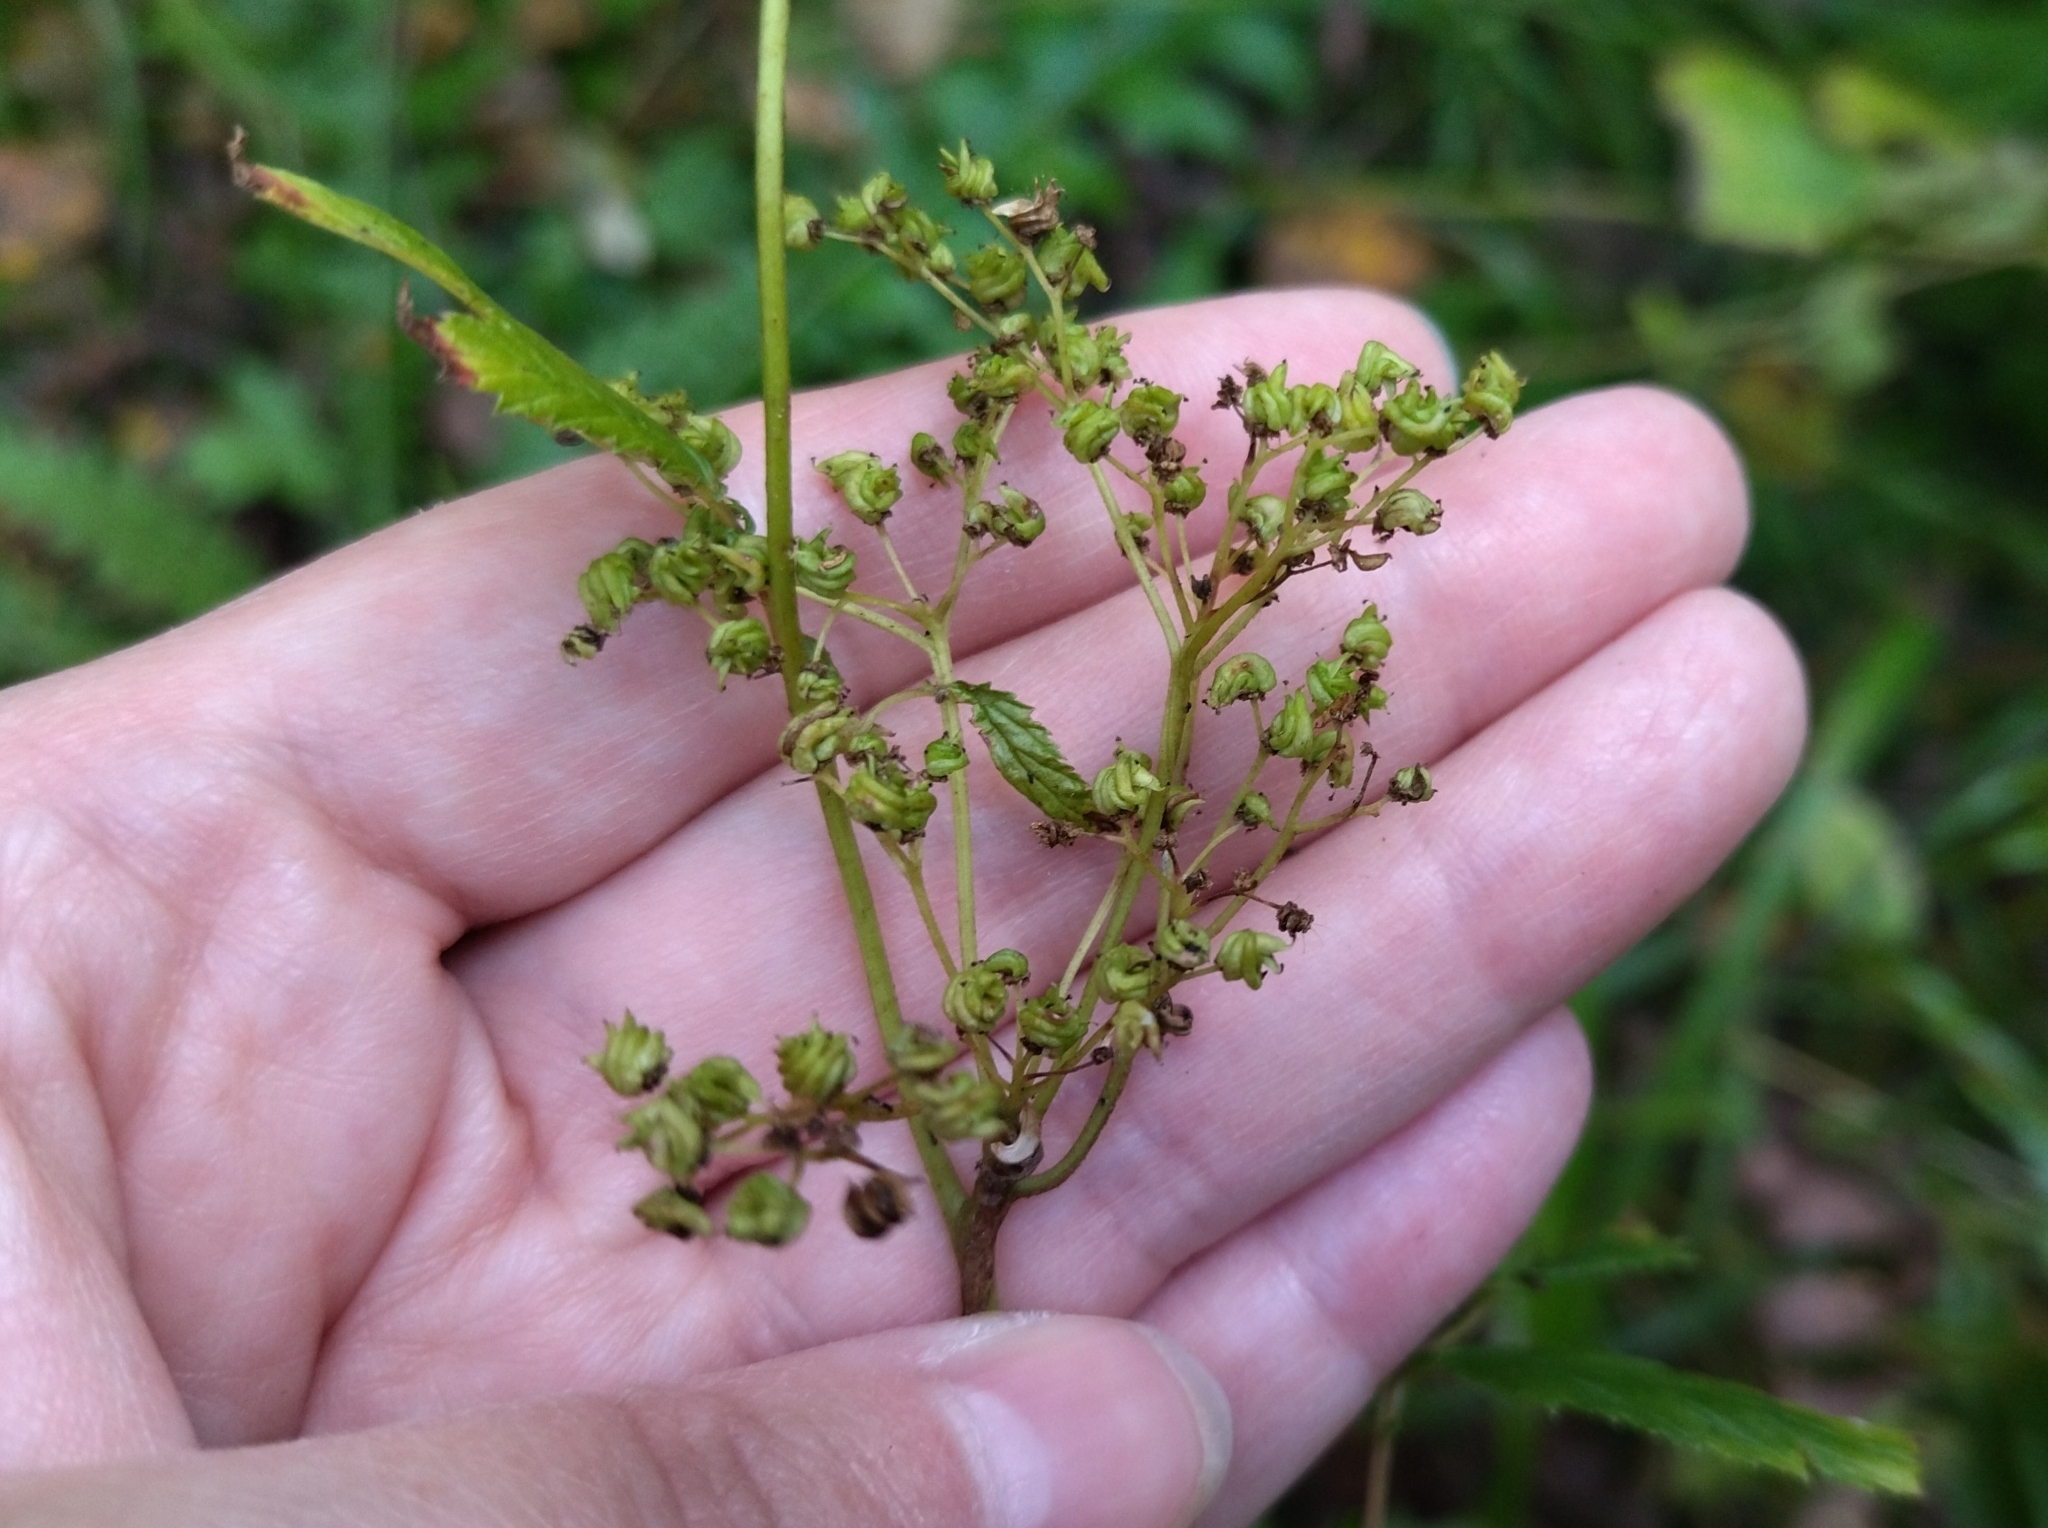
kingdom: Plantae
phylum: Tracheophyta
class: Magnoliopsida
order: Rosales
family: Rosaceae
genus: Filipendula
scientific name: Filipendula ulmaria
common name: Meadowsweet
